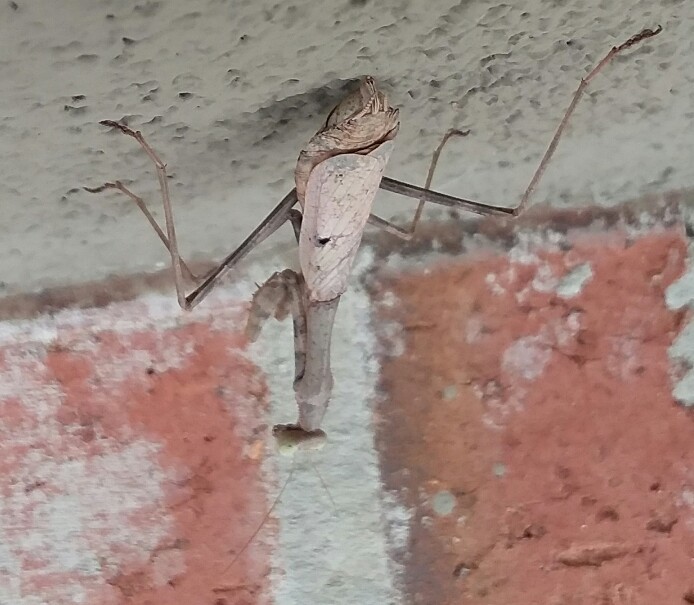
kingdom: Animalia
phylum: Arthropoda
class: Insecta
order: Mantodea
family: Mantidae
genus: Stagmomantis
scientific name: Stagmomantis carolina
